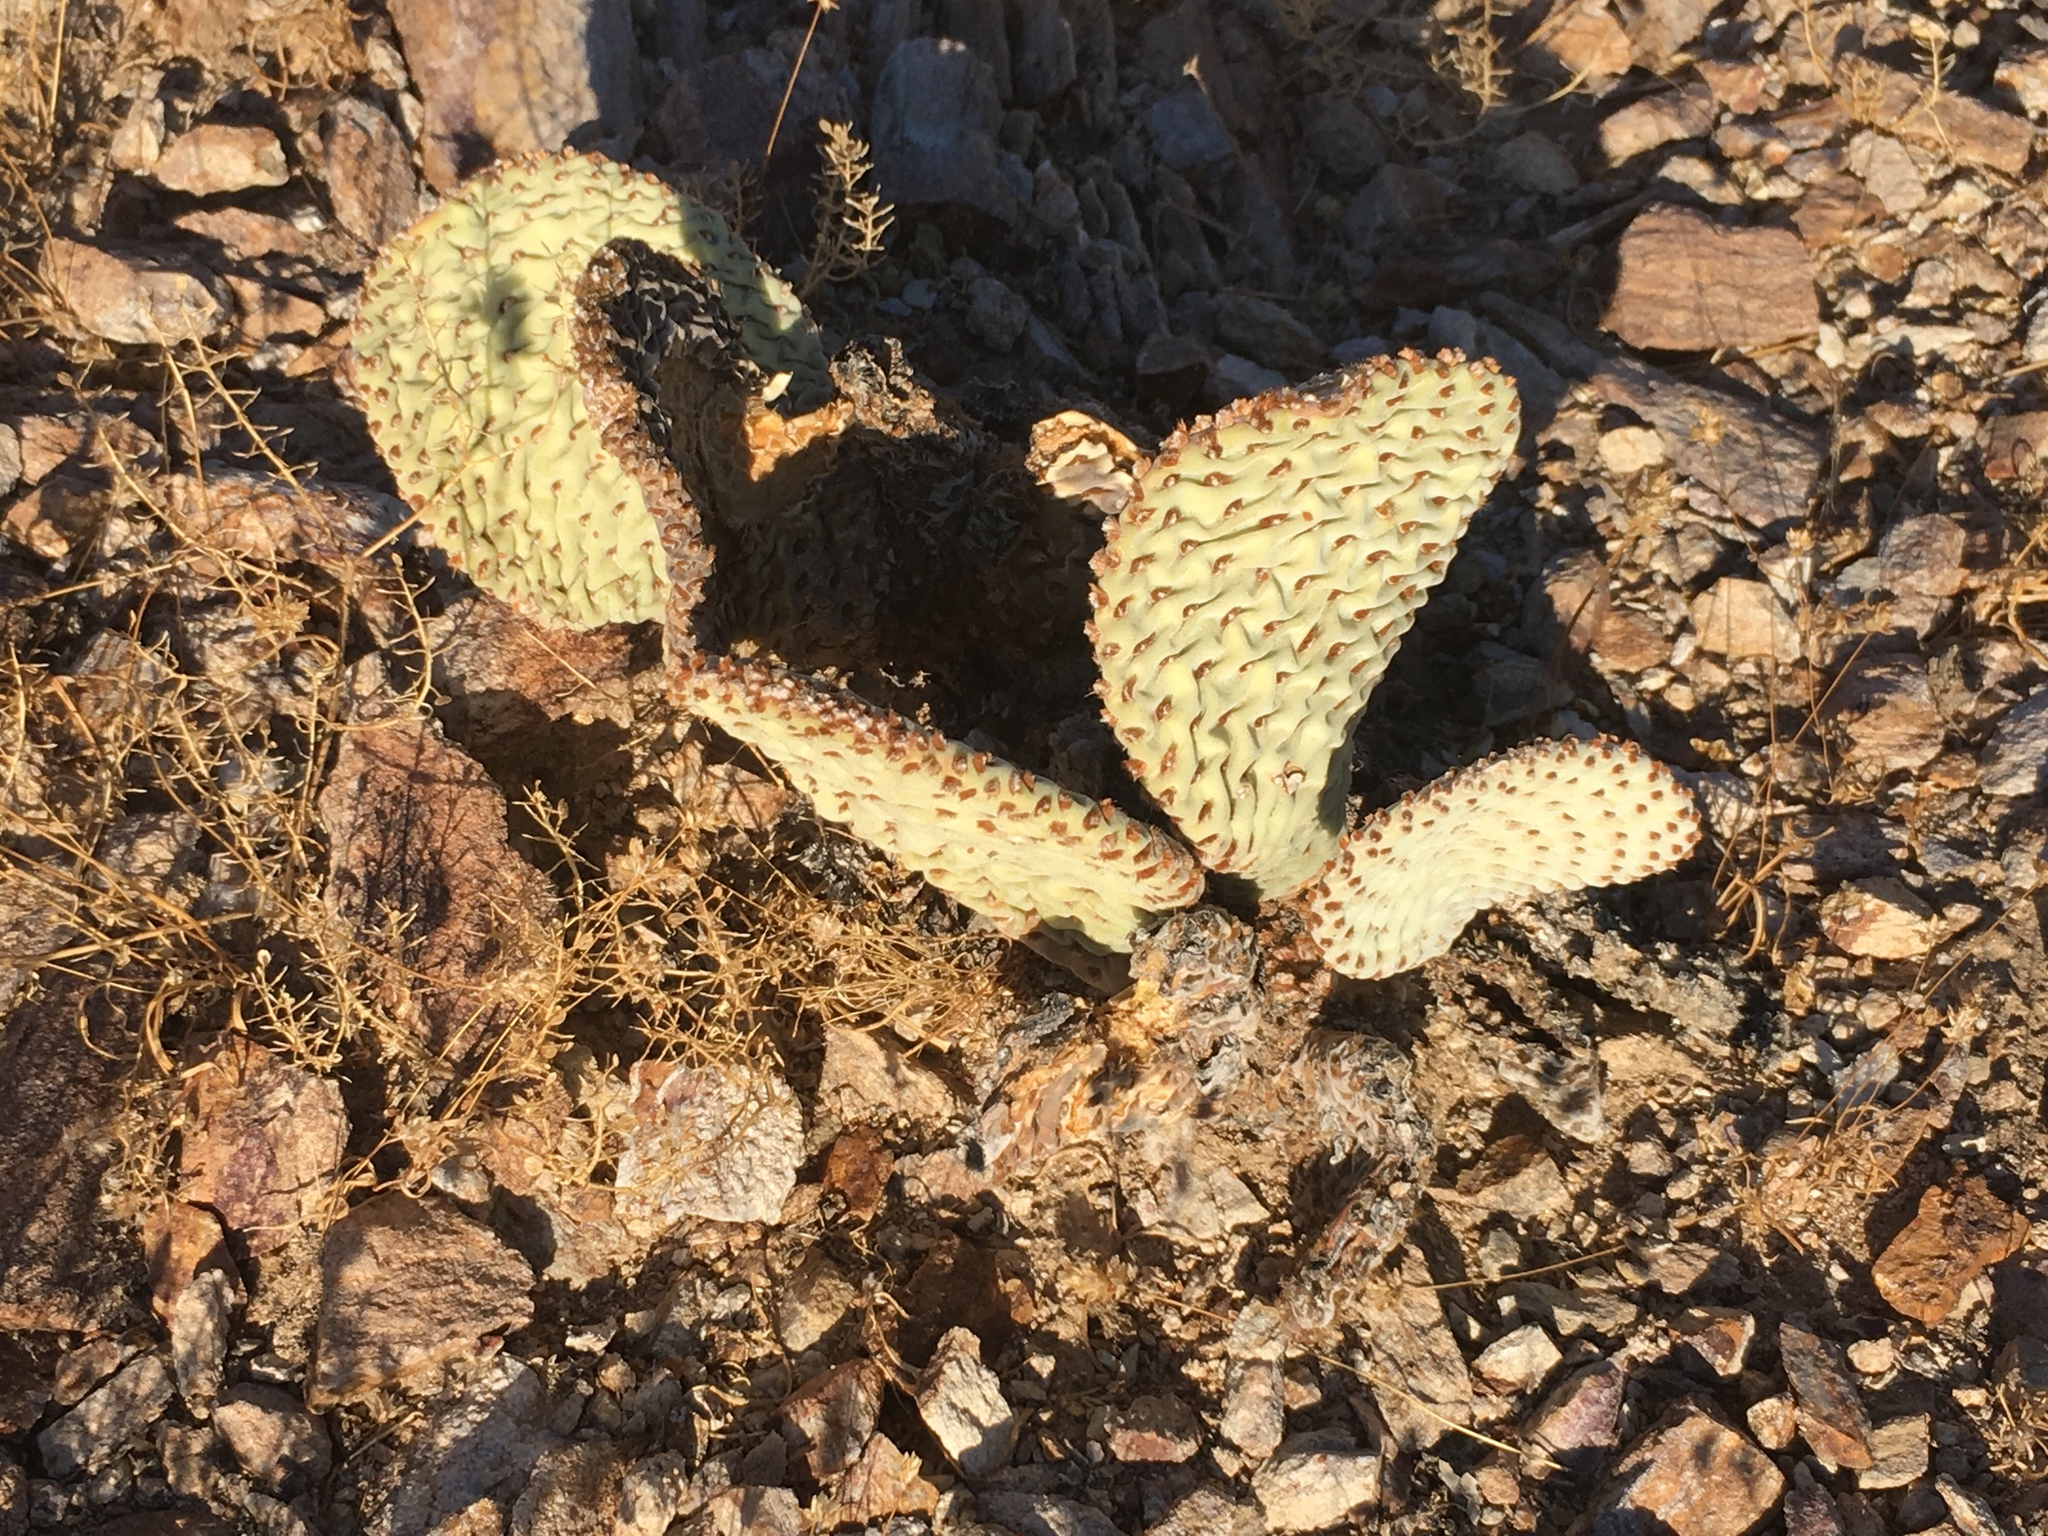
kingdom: Plantae
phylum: Tracheophyta
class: Magnoliopsida
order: Caryophyllales
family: Cactaceae
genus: Opuntia
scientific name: Opuntia basilaris
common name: Beavertail prickly-pear
